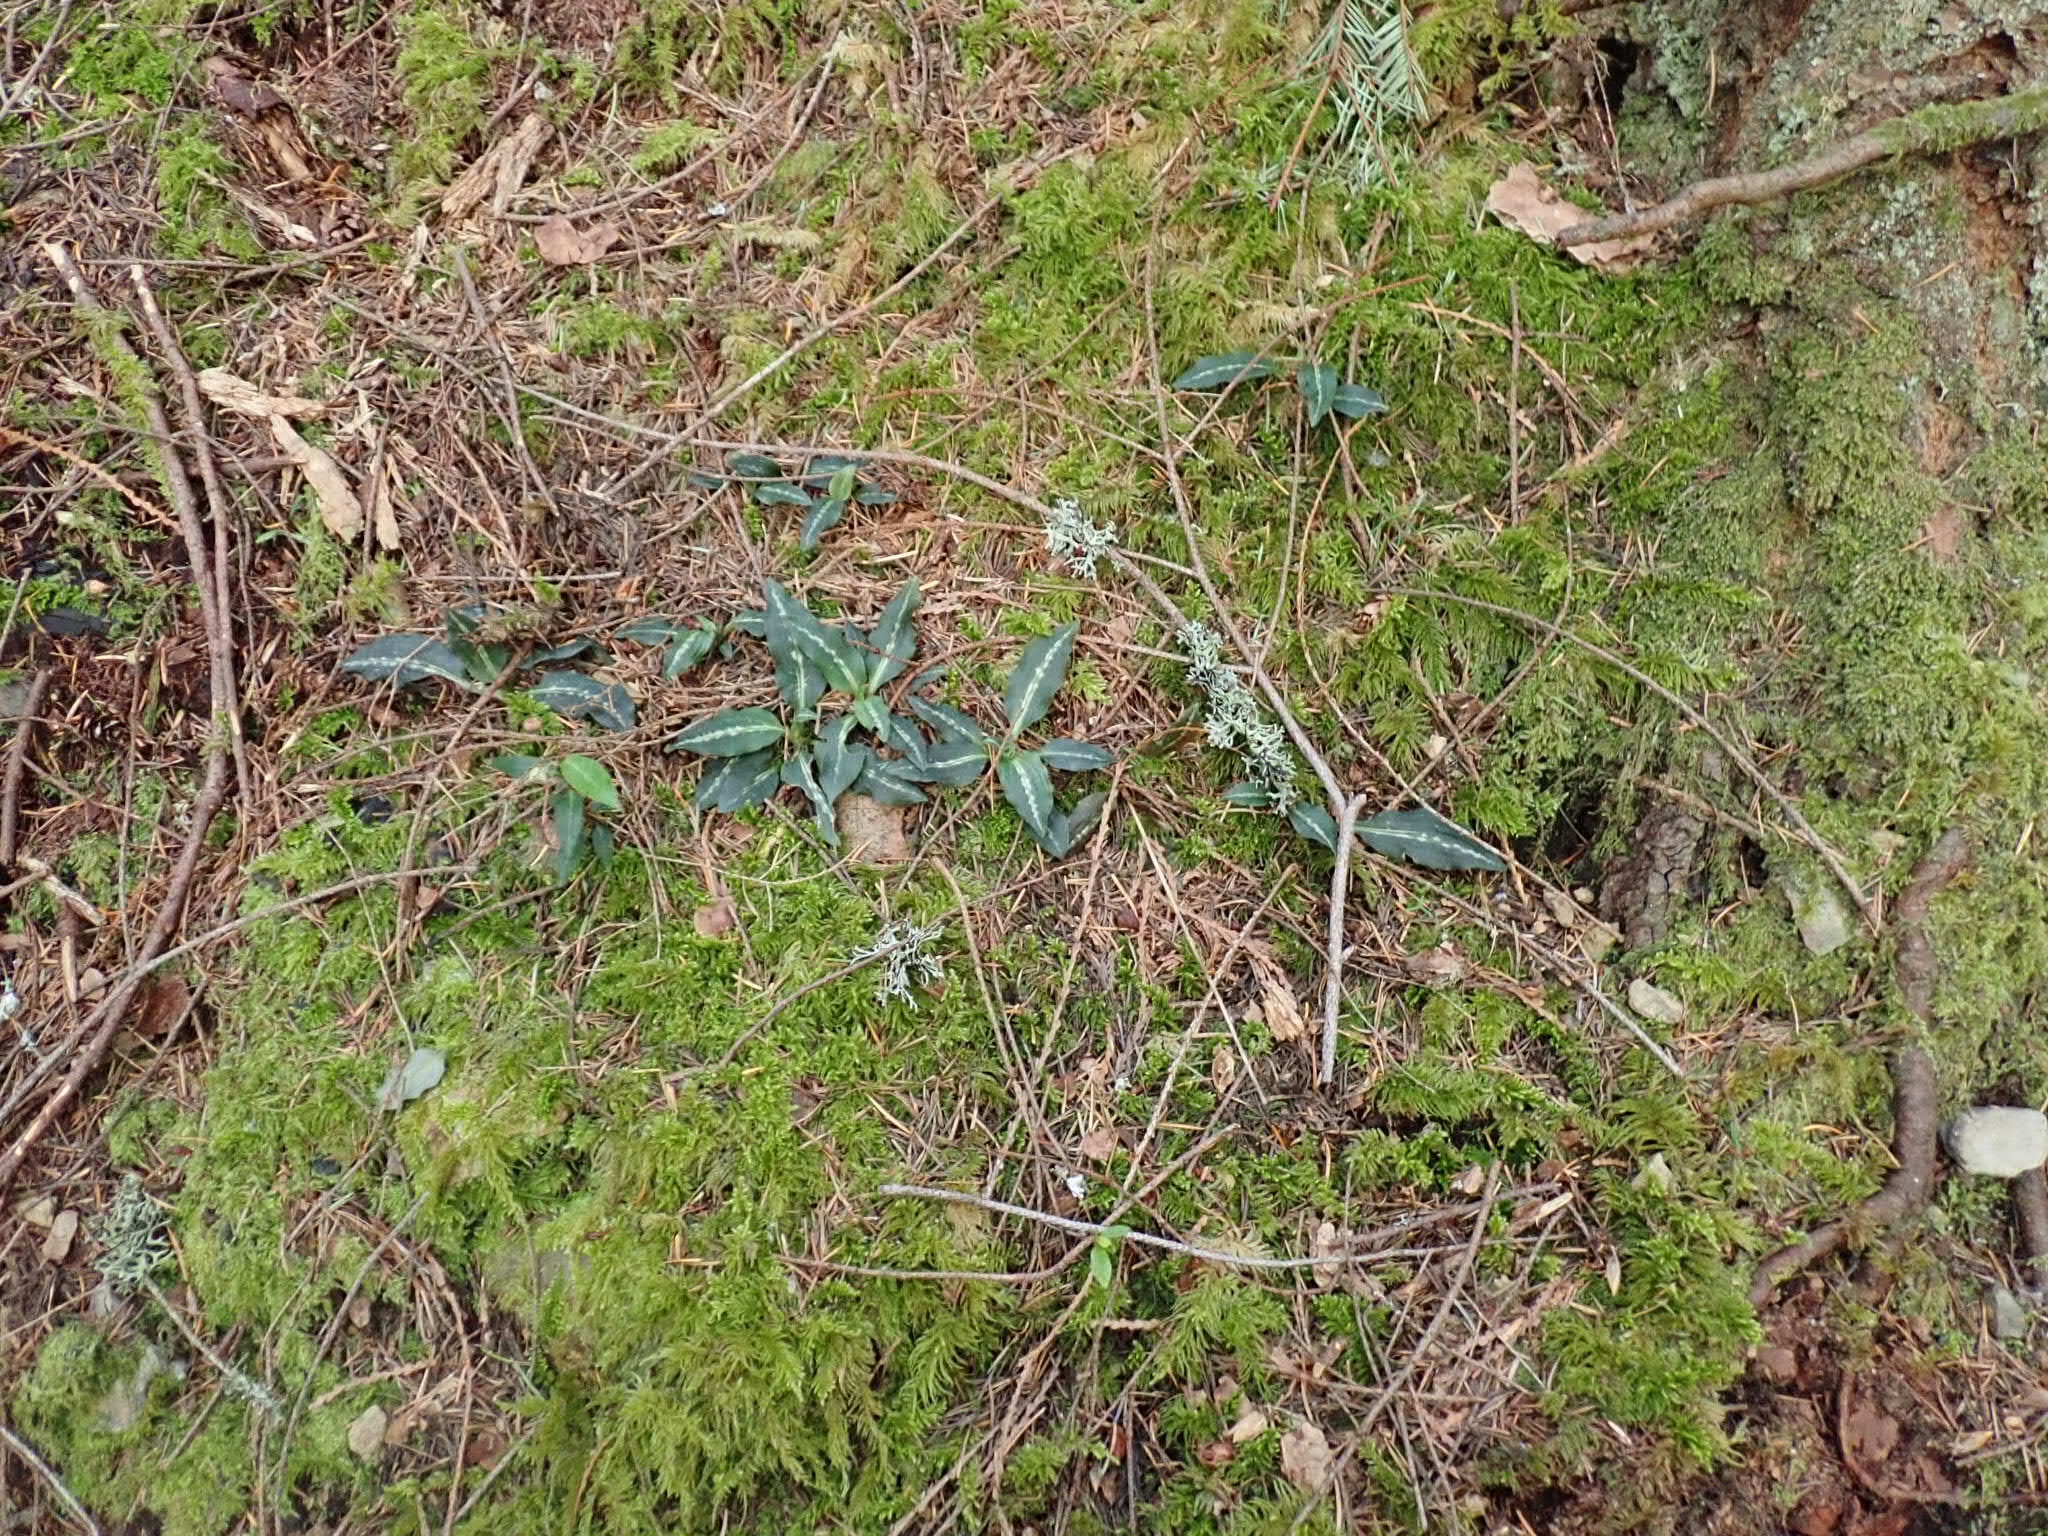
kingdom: Plantae
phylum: Tracheophyta
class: Liliopsida
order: Asparagales
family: Orchidaceae
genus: Goodyera
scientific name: Goodyera oblongifolia
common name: Giant rattlesnake-plantain
